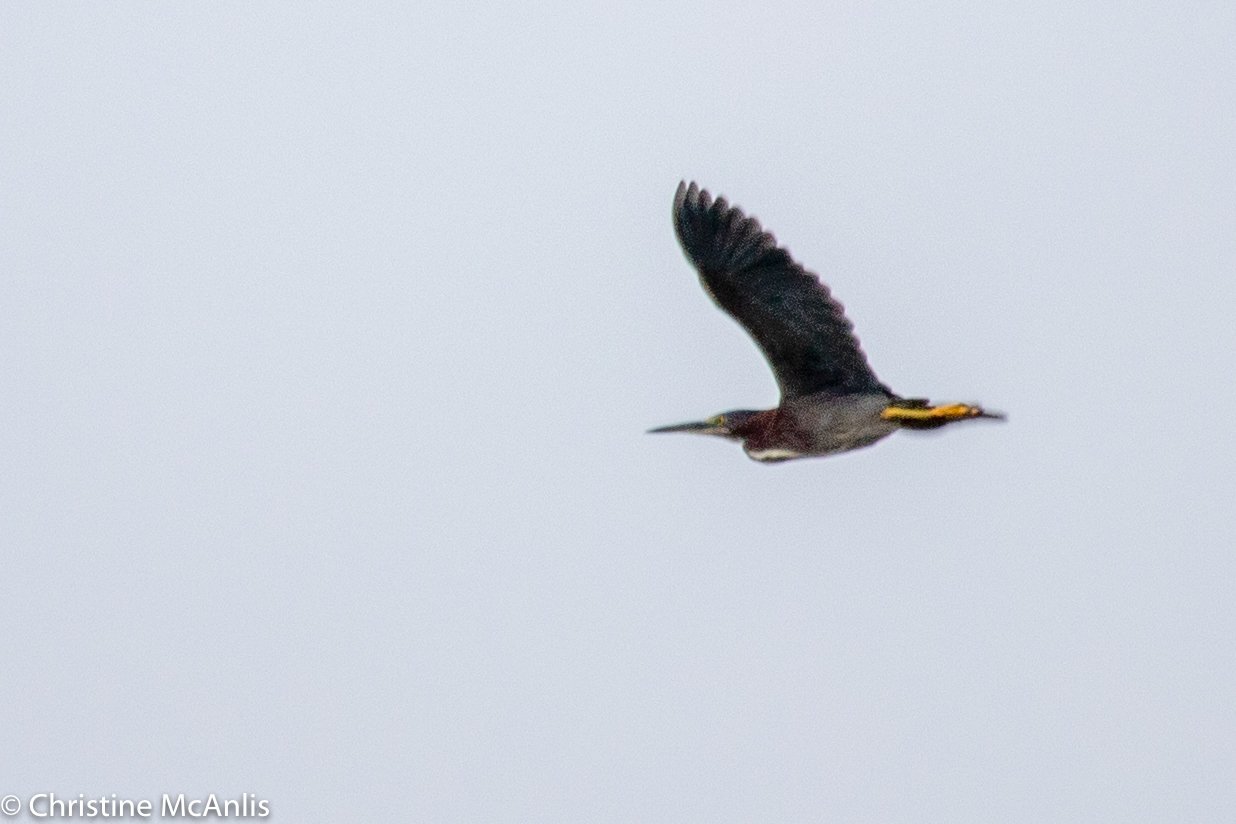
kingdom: Animalia
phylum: Chordata
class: Aves
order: Pelecaniformes
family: Ardeidae
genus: Butorides
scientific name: Butorides virescens
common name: Green heron
